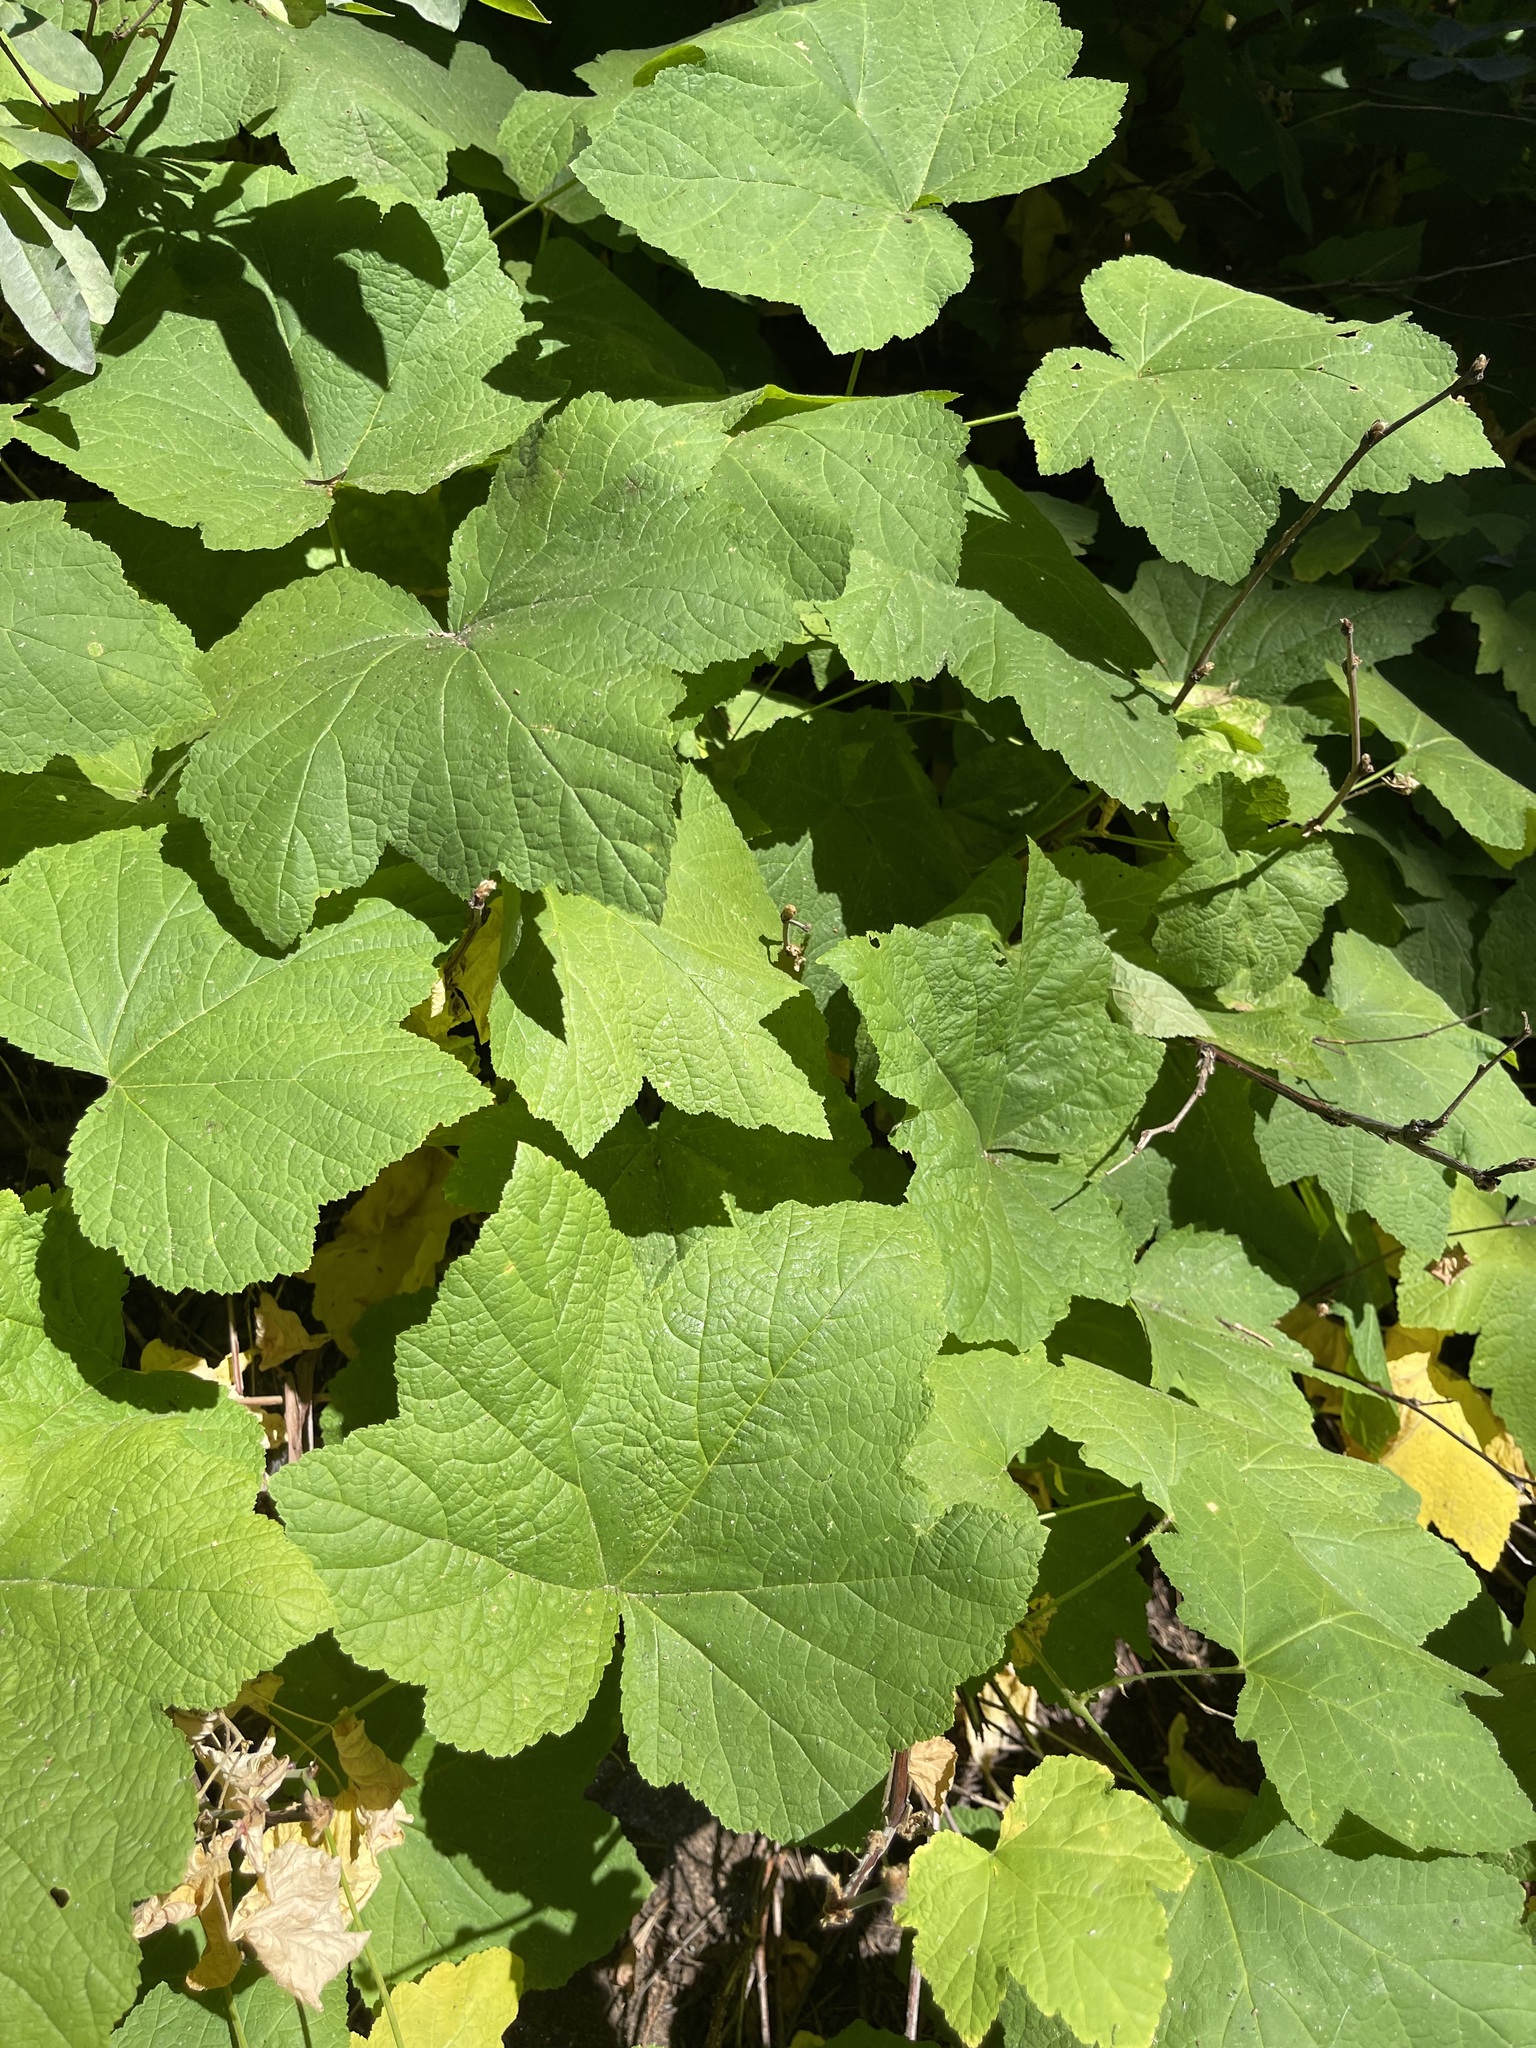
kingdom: Plantae
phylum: Tracheophyta
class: Magnoliopsida
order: Rosales
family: Rosaceae
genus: Rubus
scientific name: Rubus parviflorus
